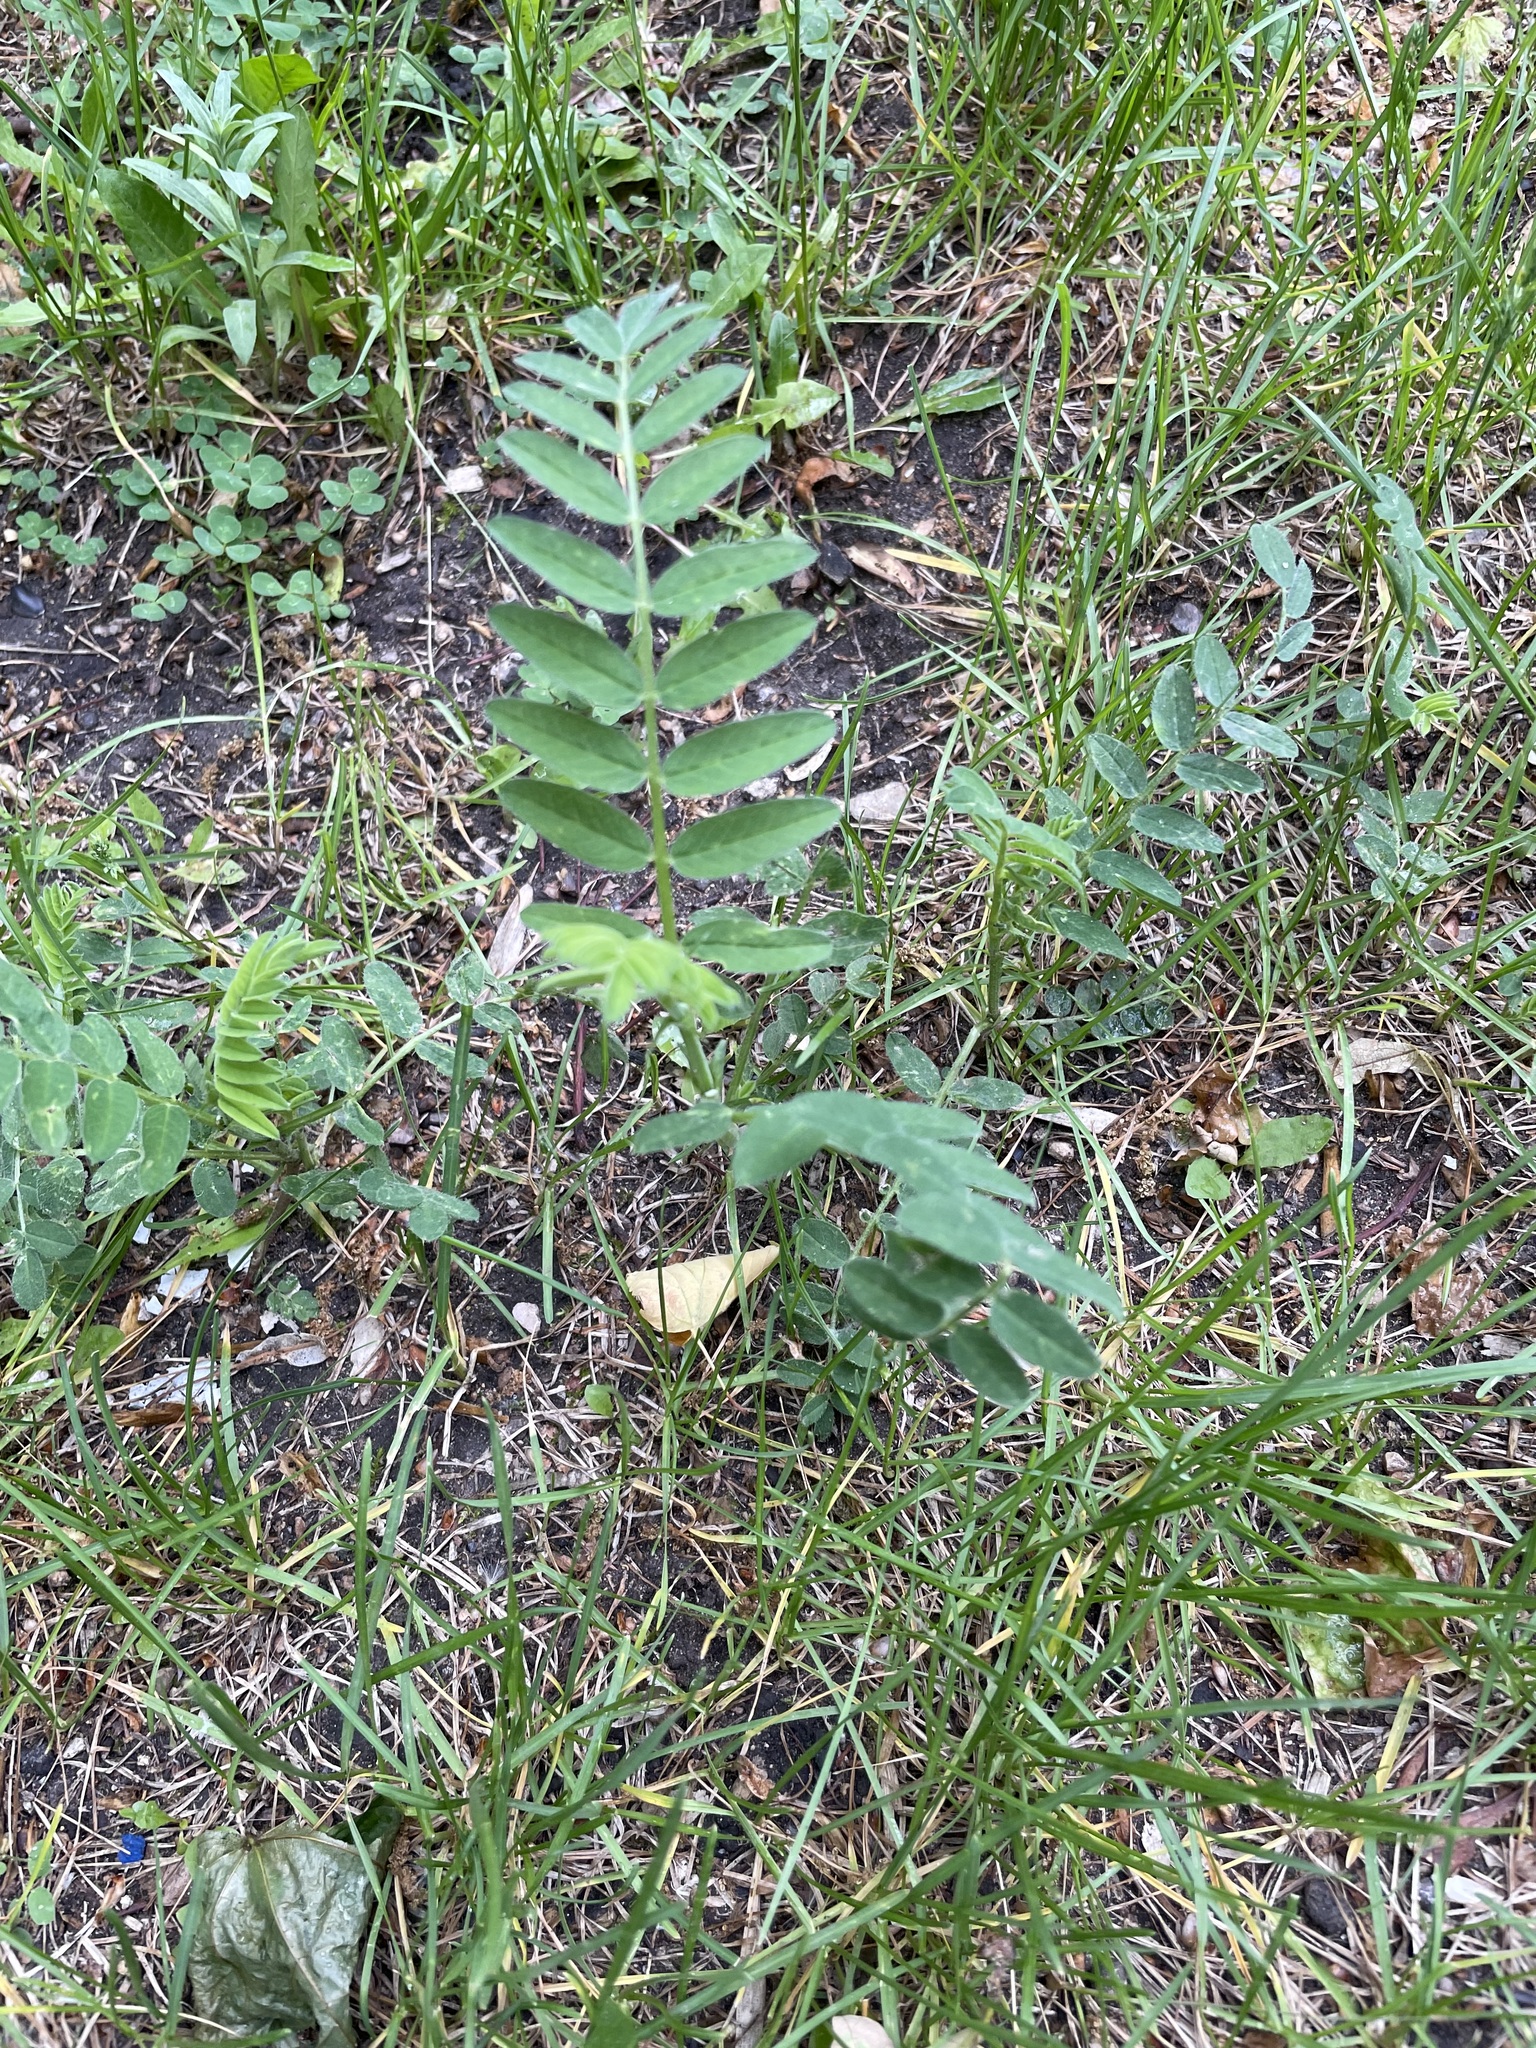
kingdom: Plantae
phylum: Tracheophyta
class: Magnoliopsida
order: Fabales
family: Fabaceae
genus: Astragalus
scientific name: Astragalus cicer
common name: Chick-pea milk-vetch
